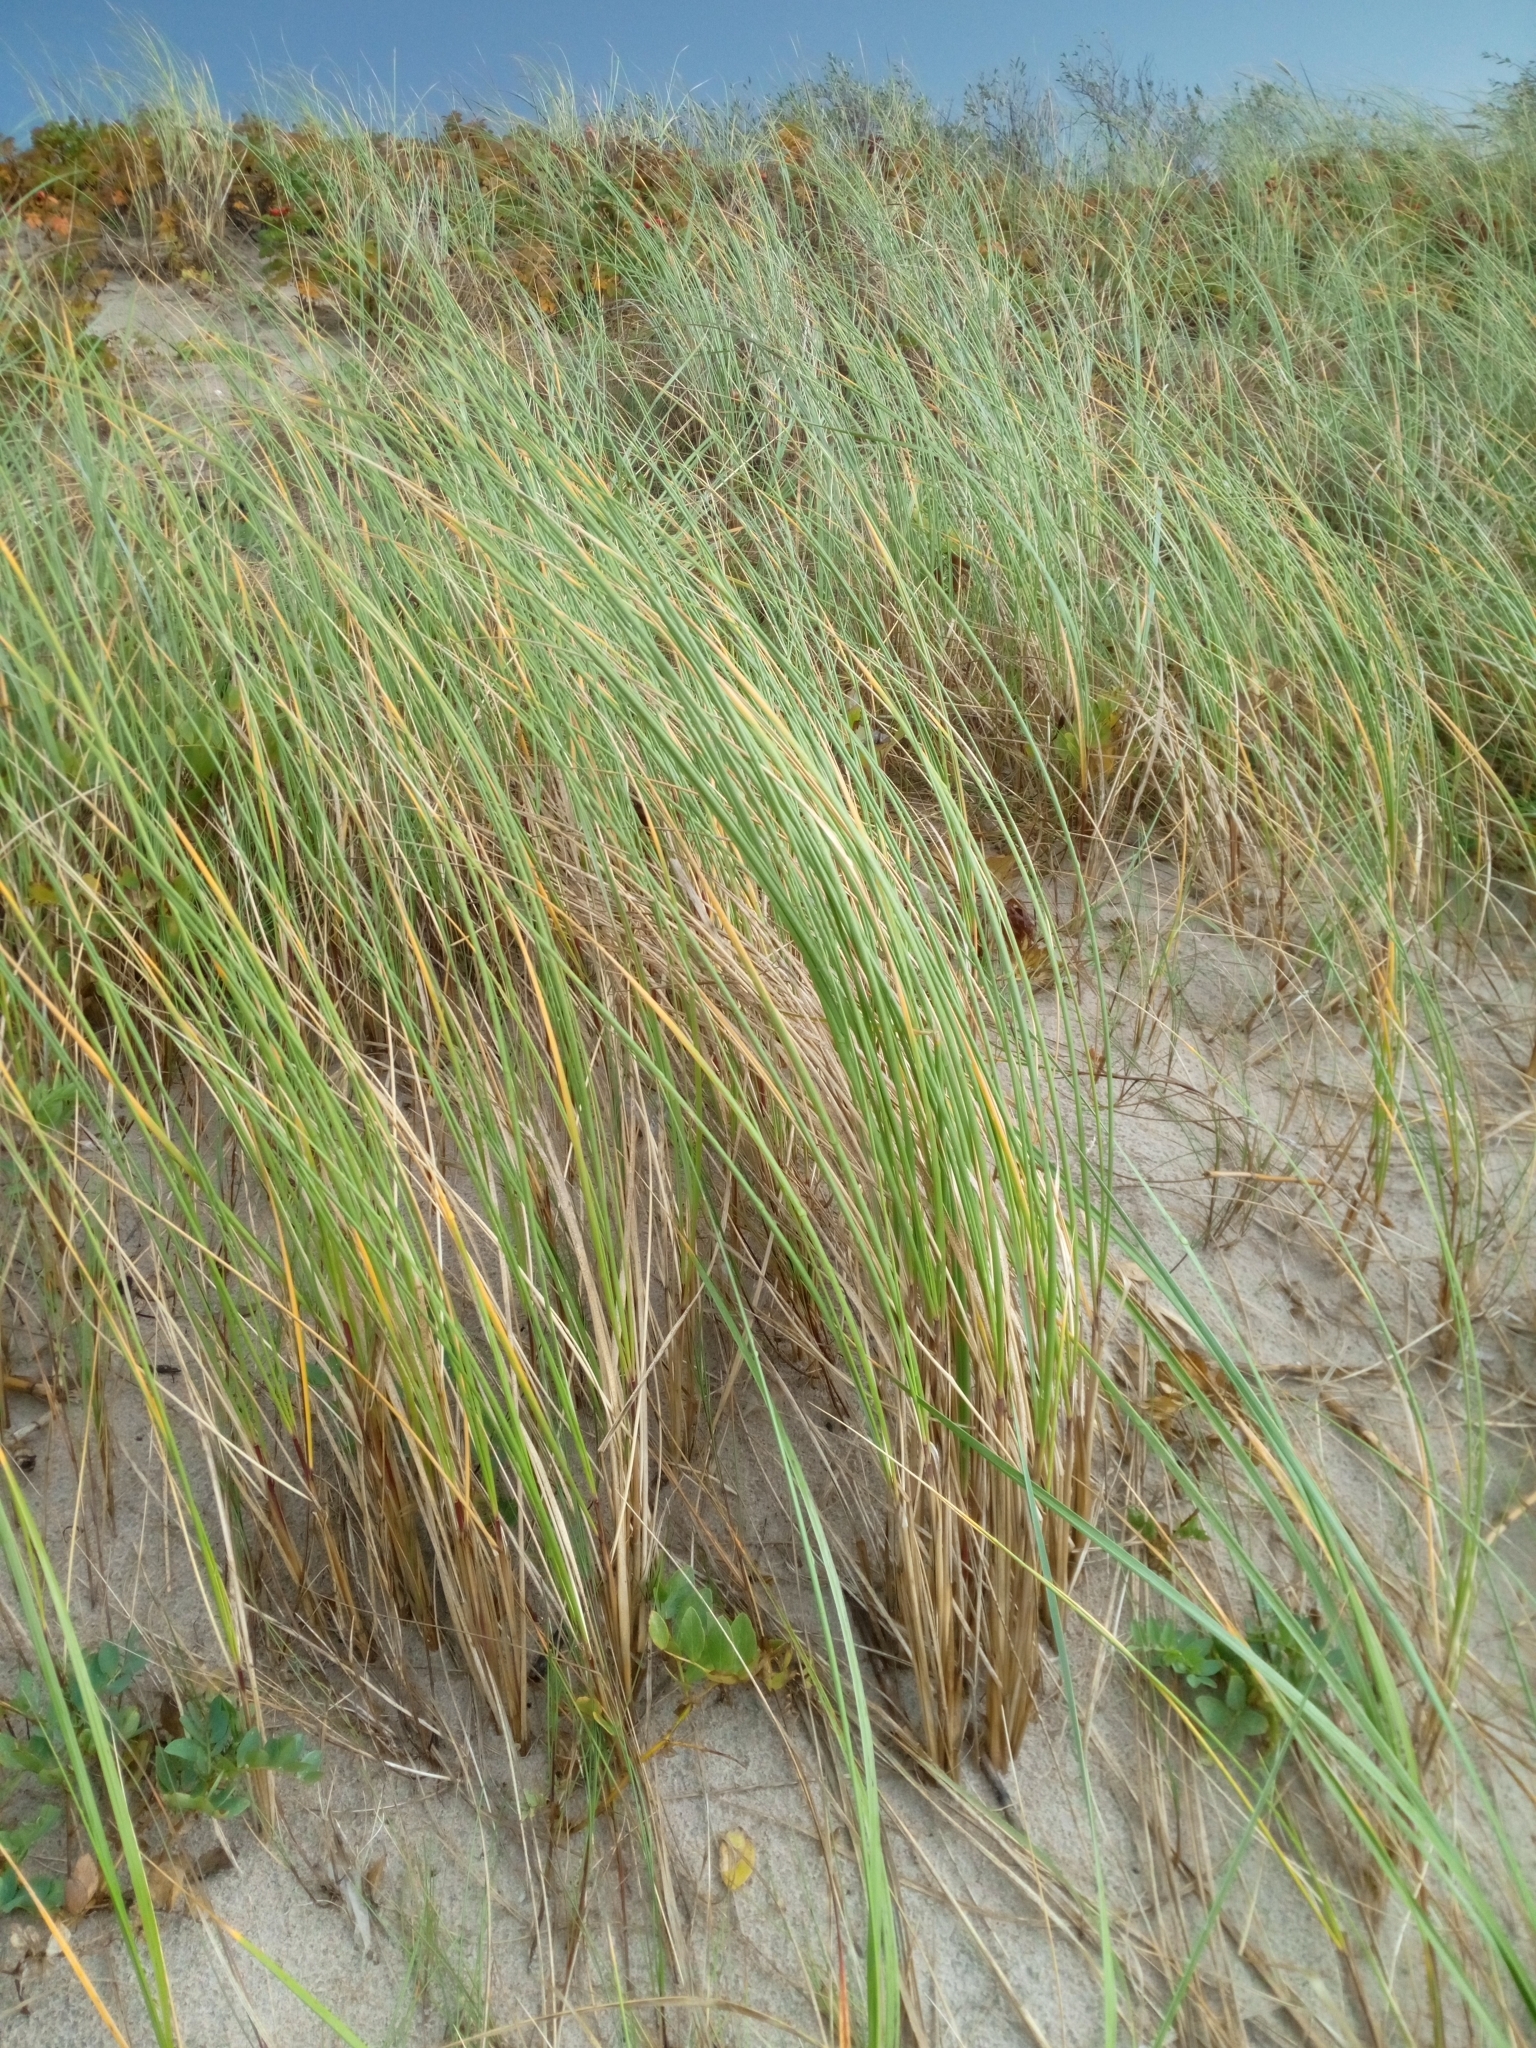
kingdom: Plantae
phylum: Tracheophyta
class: Liliopsida
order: Poales
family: Poaceae
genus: Calamagrostis
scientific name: Calamagrostis arenaria
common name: European beachgrass
